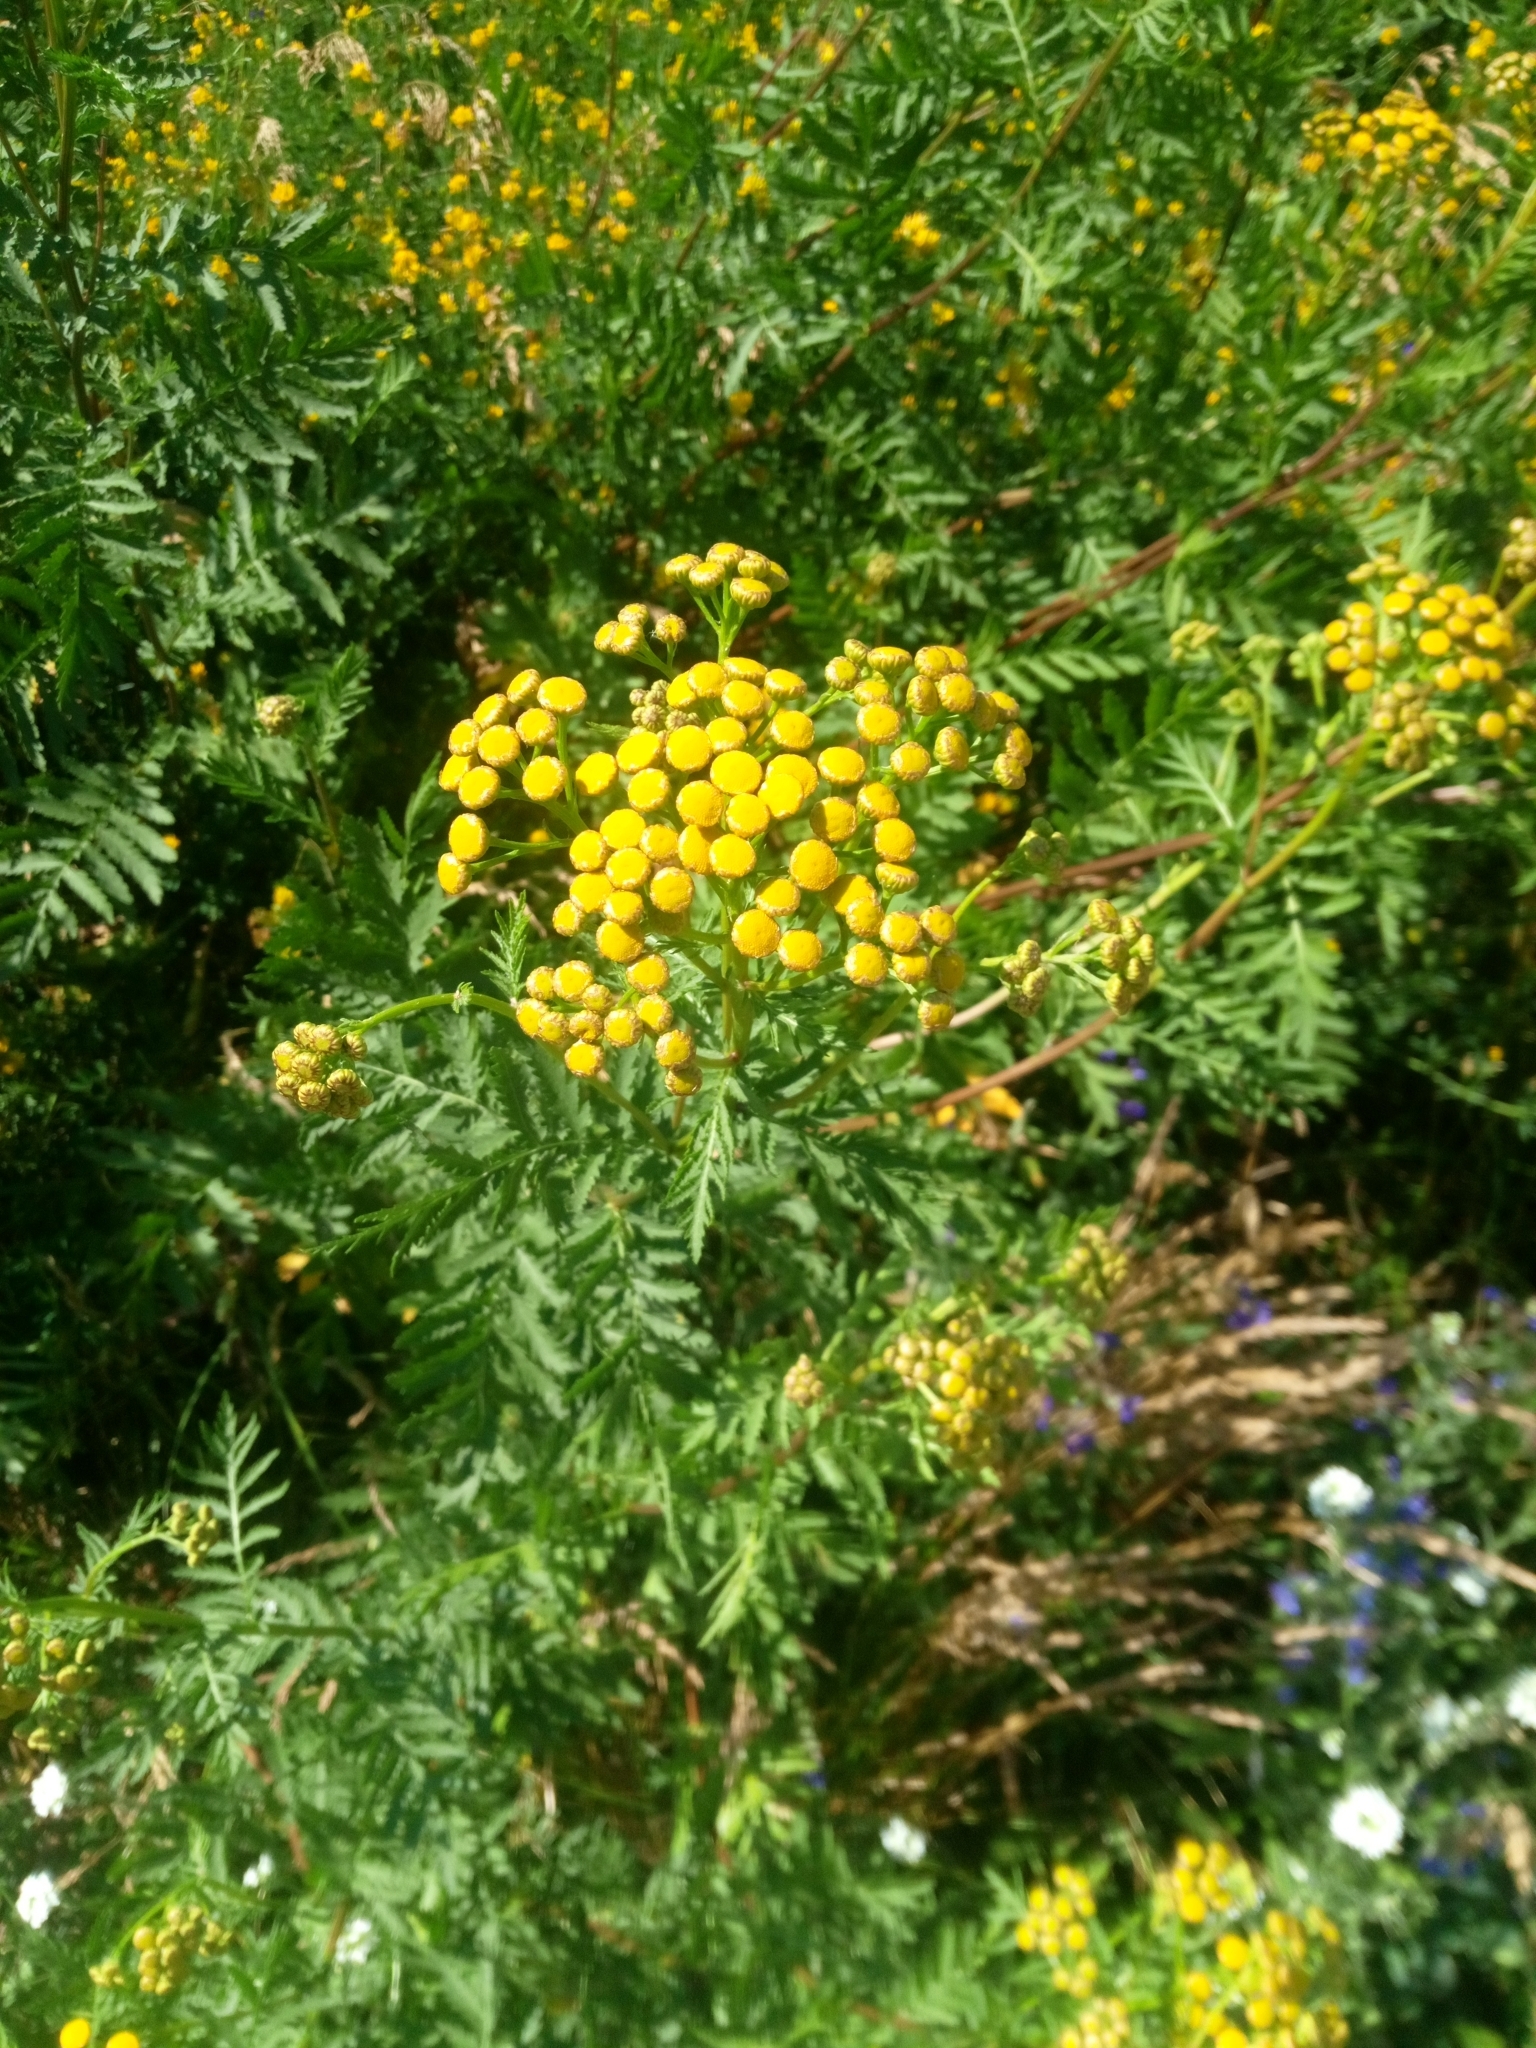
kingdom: Plantae
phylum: Tracheophyta
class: Magnoliopsida
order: Asterales
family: Asteraceae
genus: Tanacetum
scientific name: Tanacetum vulgare
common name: Common tansy
